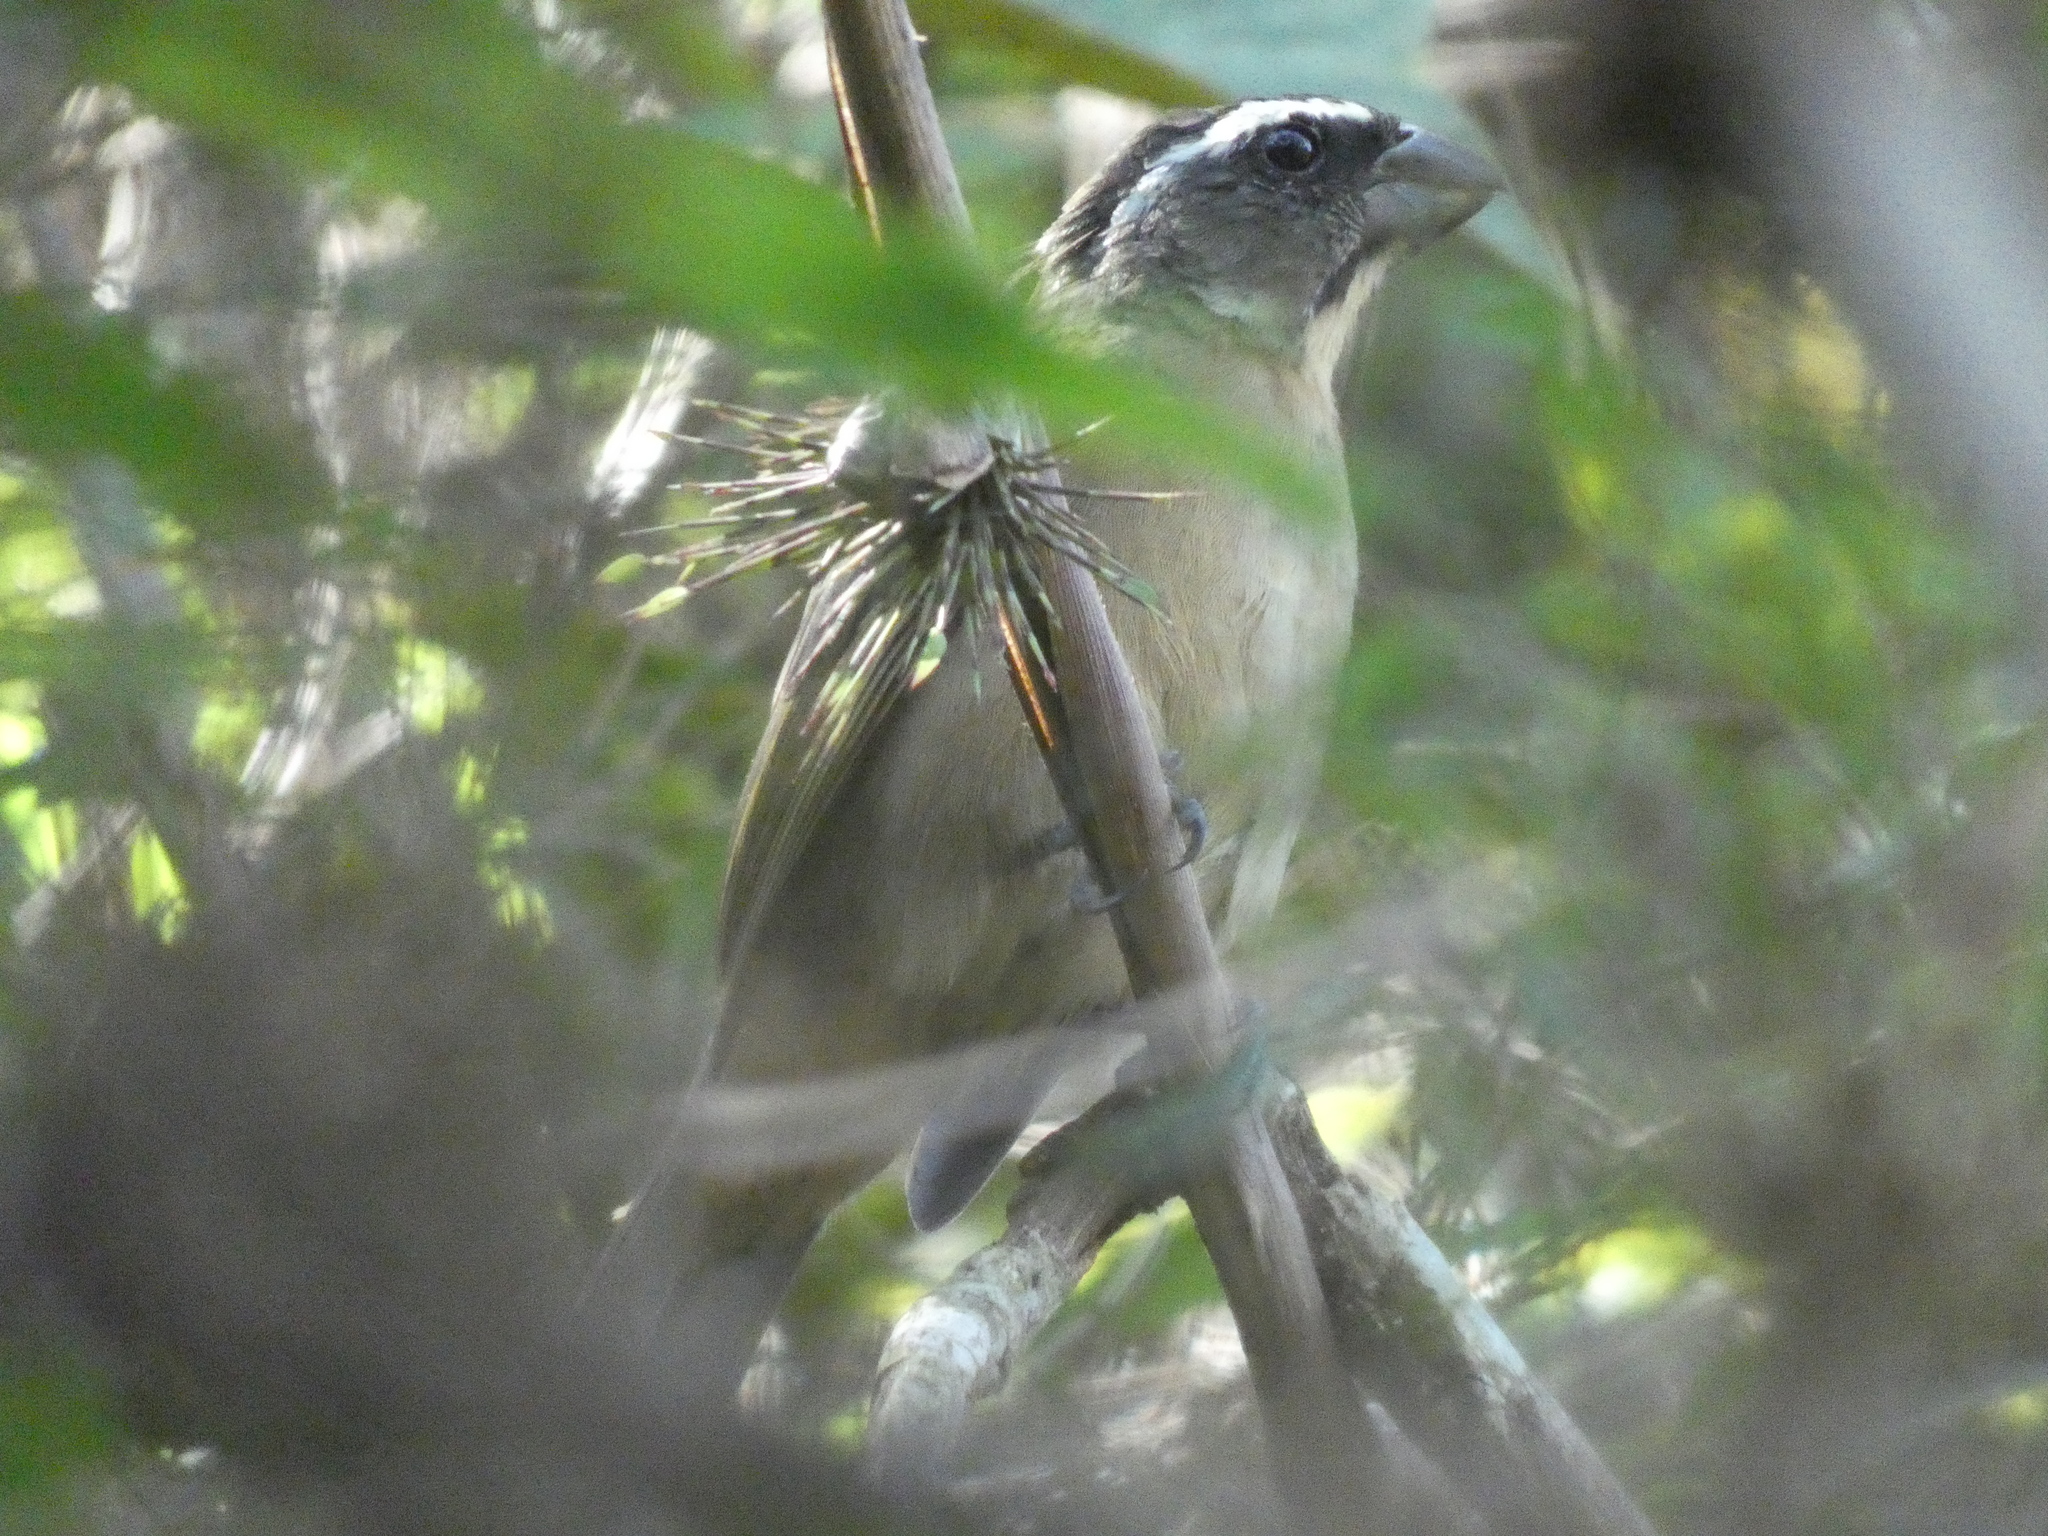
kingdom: Animalia
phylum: Chordata
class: Aves
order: Passeriformes
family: Thraupidae
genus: Saltator
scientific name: Saltator similis
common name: Green-winged saltator
